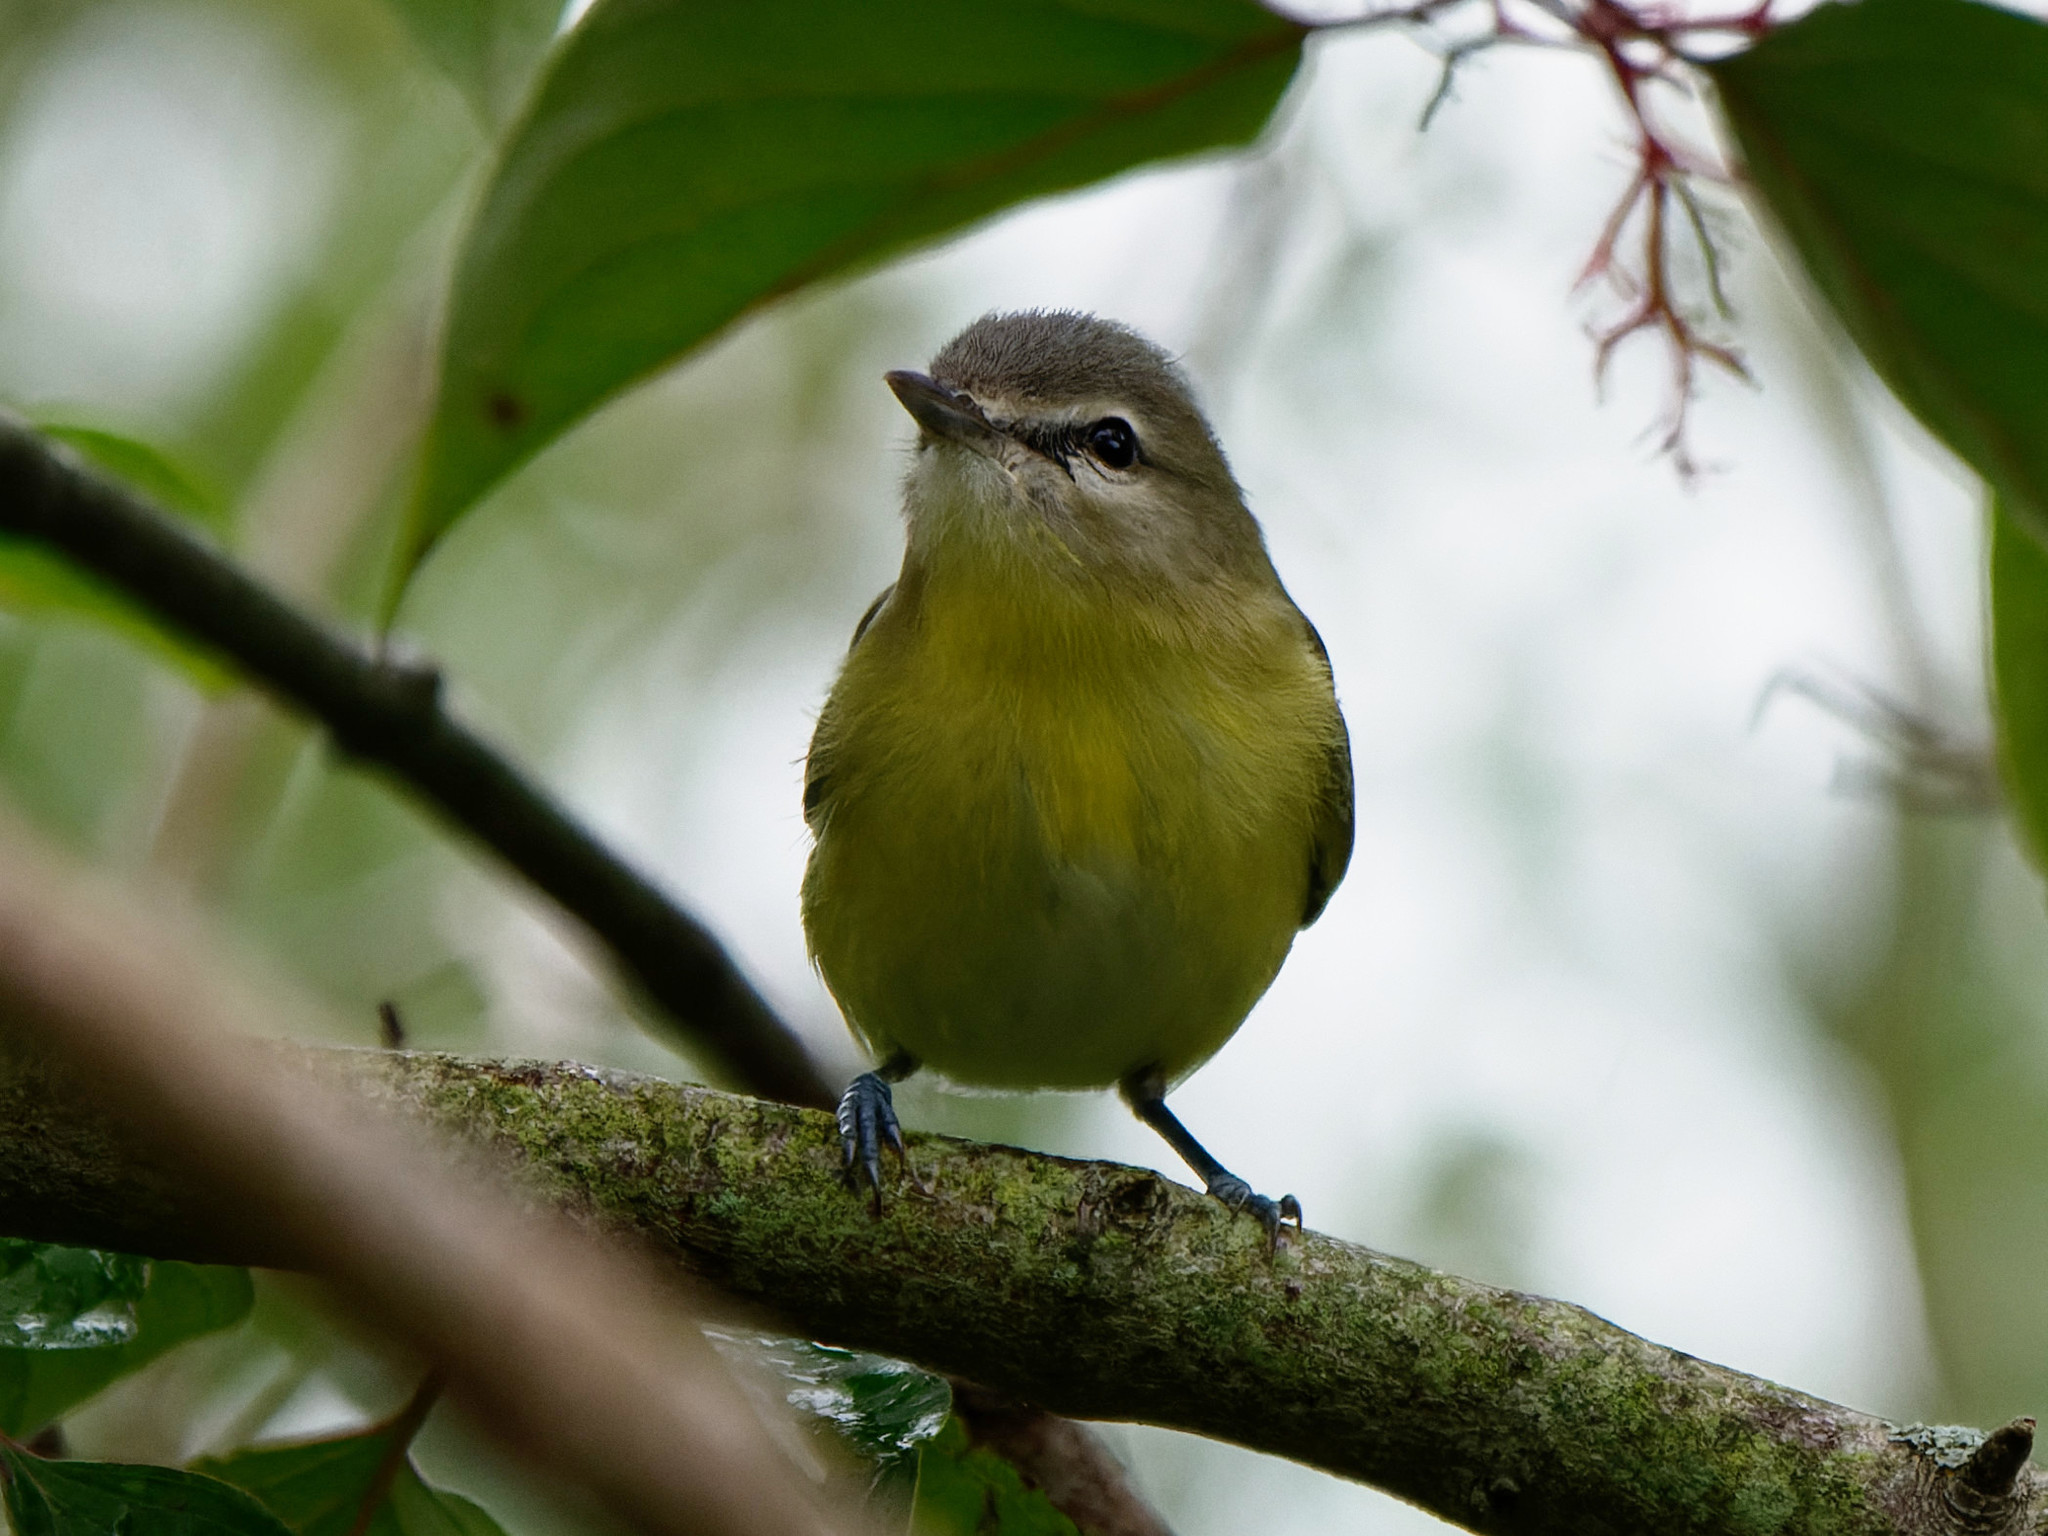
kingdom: Animalia
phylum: Chordata
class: Aves
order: Passeriformes
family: Vireonidae
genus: Vireo
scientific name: Vireo philadelphicus
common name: Philadelphia vireo
